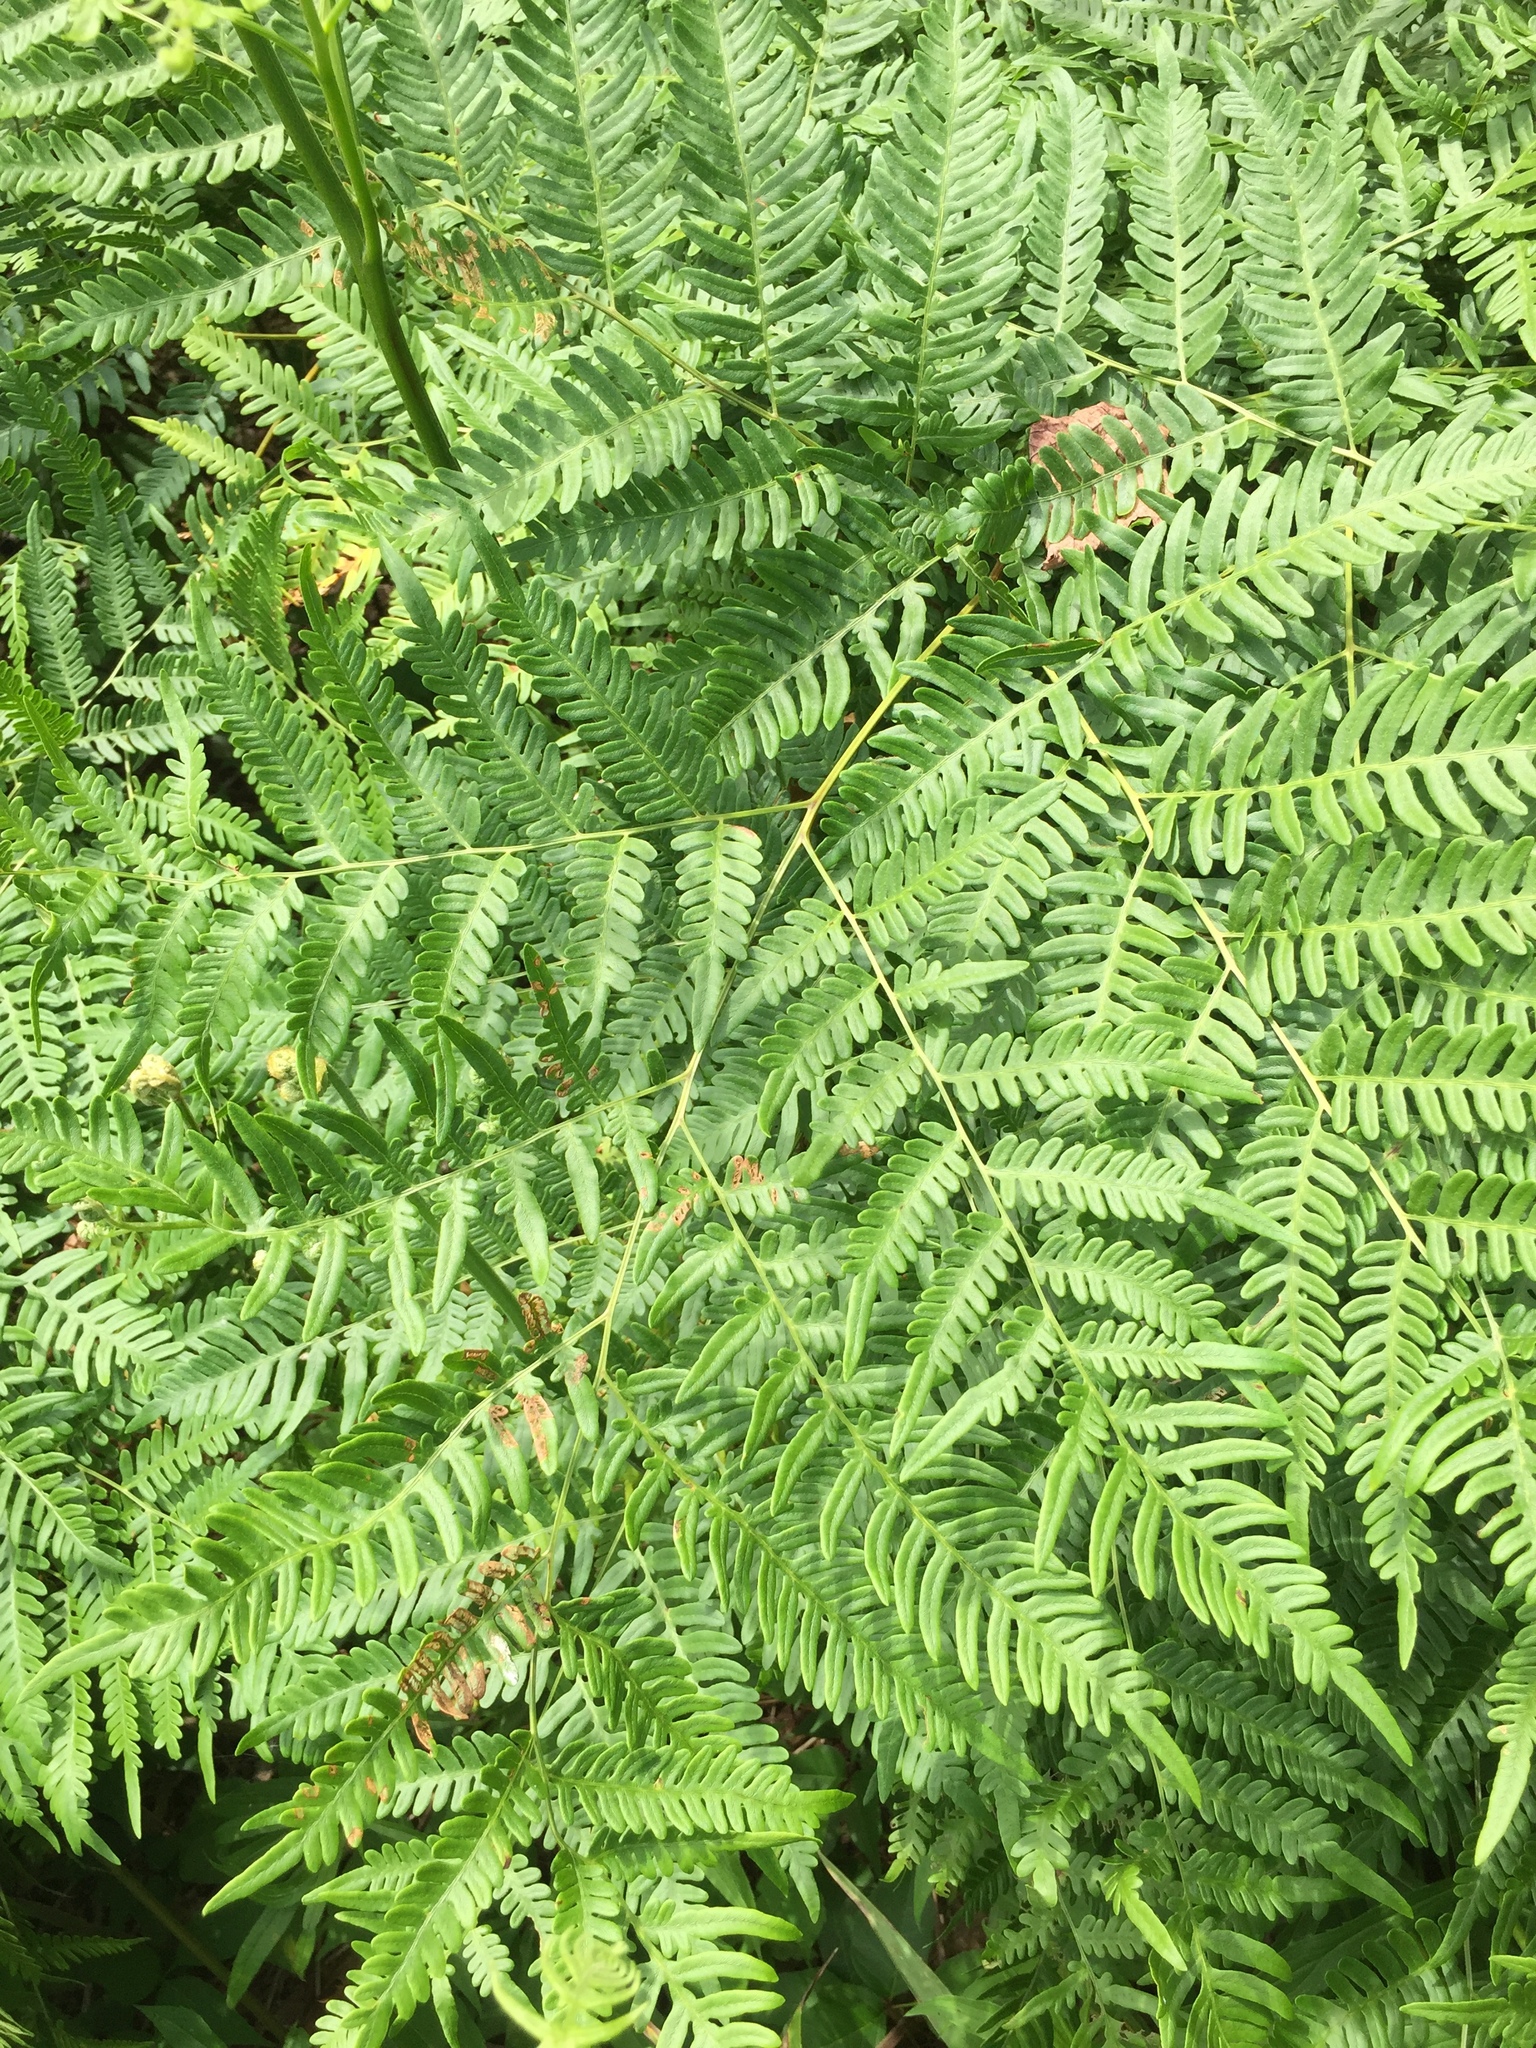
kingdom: Plantae
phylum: Tracheophyta
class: Polypodiopsida
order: Polypodiales
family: Dennstaedtiaceae
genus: Pteridium
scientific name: Pteridium aquilinum
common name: Bracken
